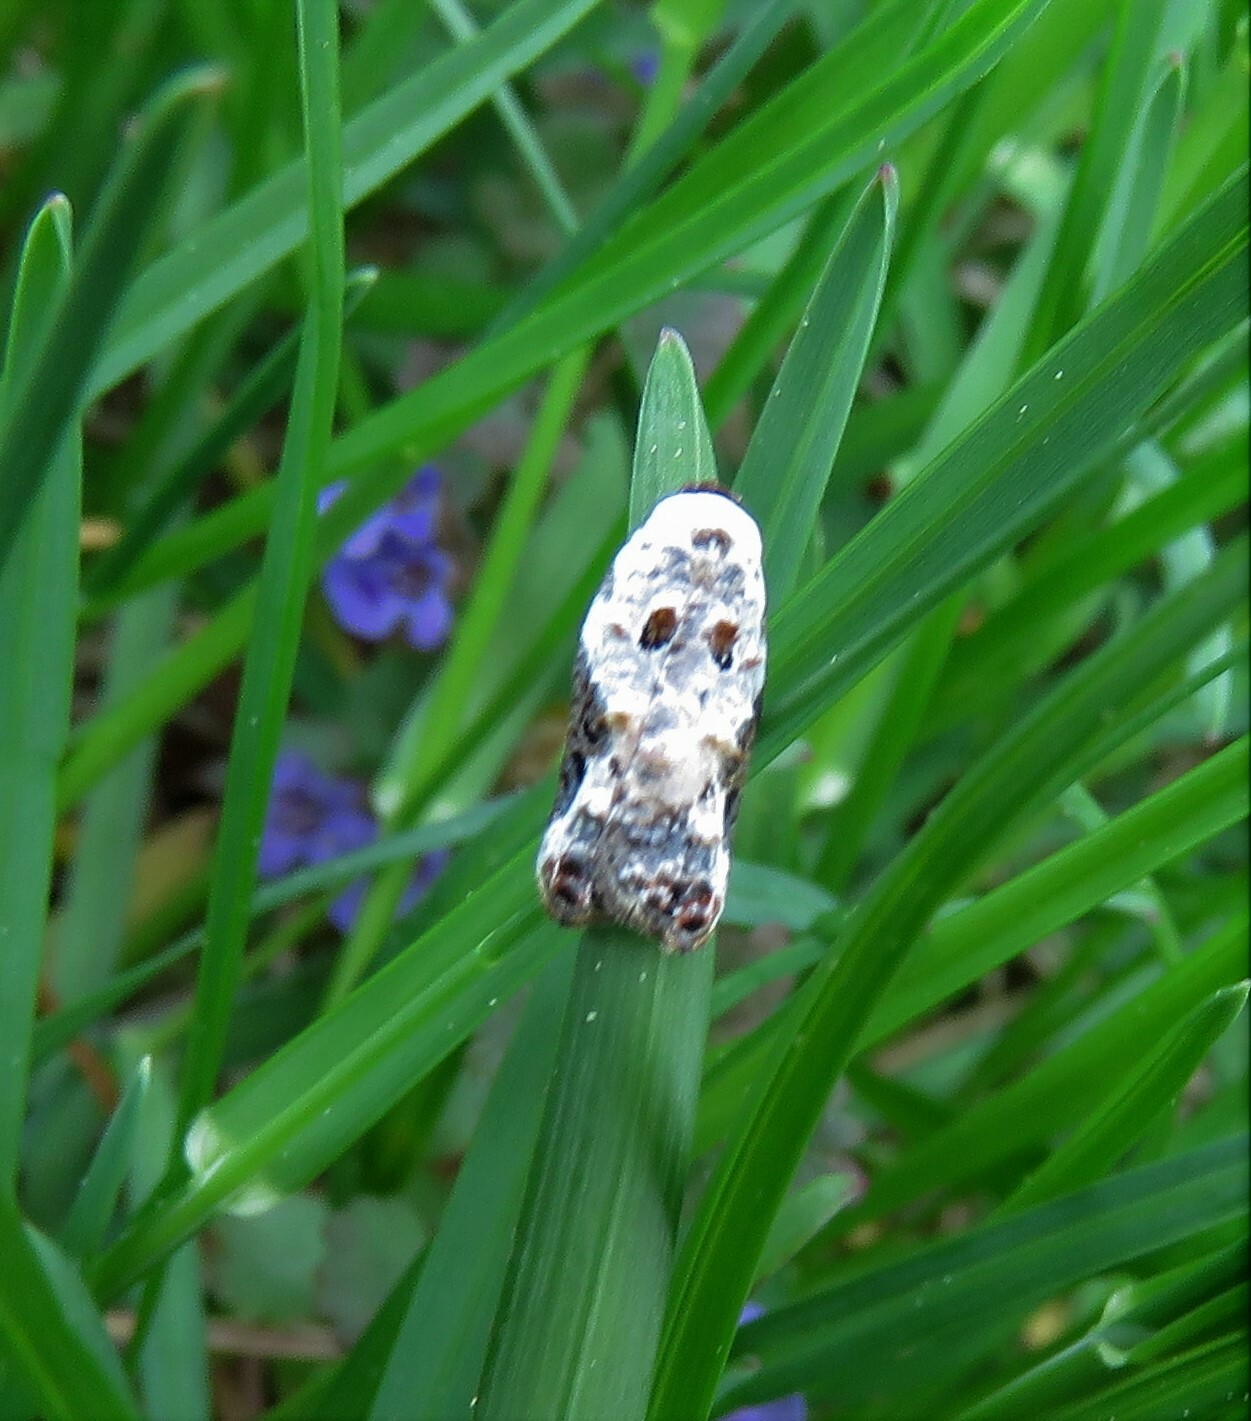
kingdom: Animalia
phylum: Arthropoda
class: Insecta
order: Lepidoptera
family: Tortricidae
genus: Acleris
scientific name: Acleris nivisellana
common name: Snowy-shouldered acleris moth
